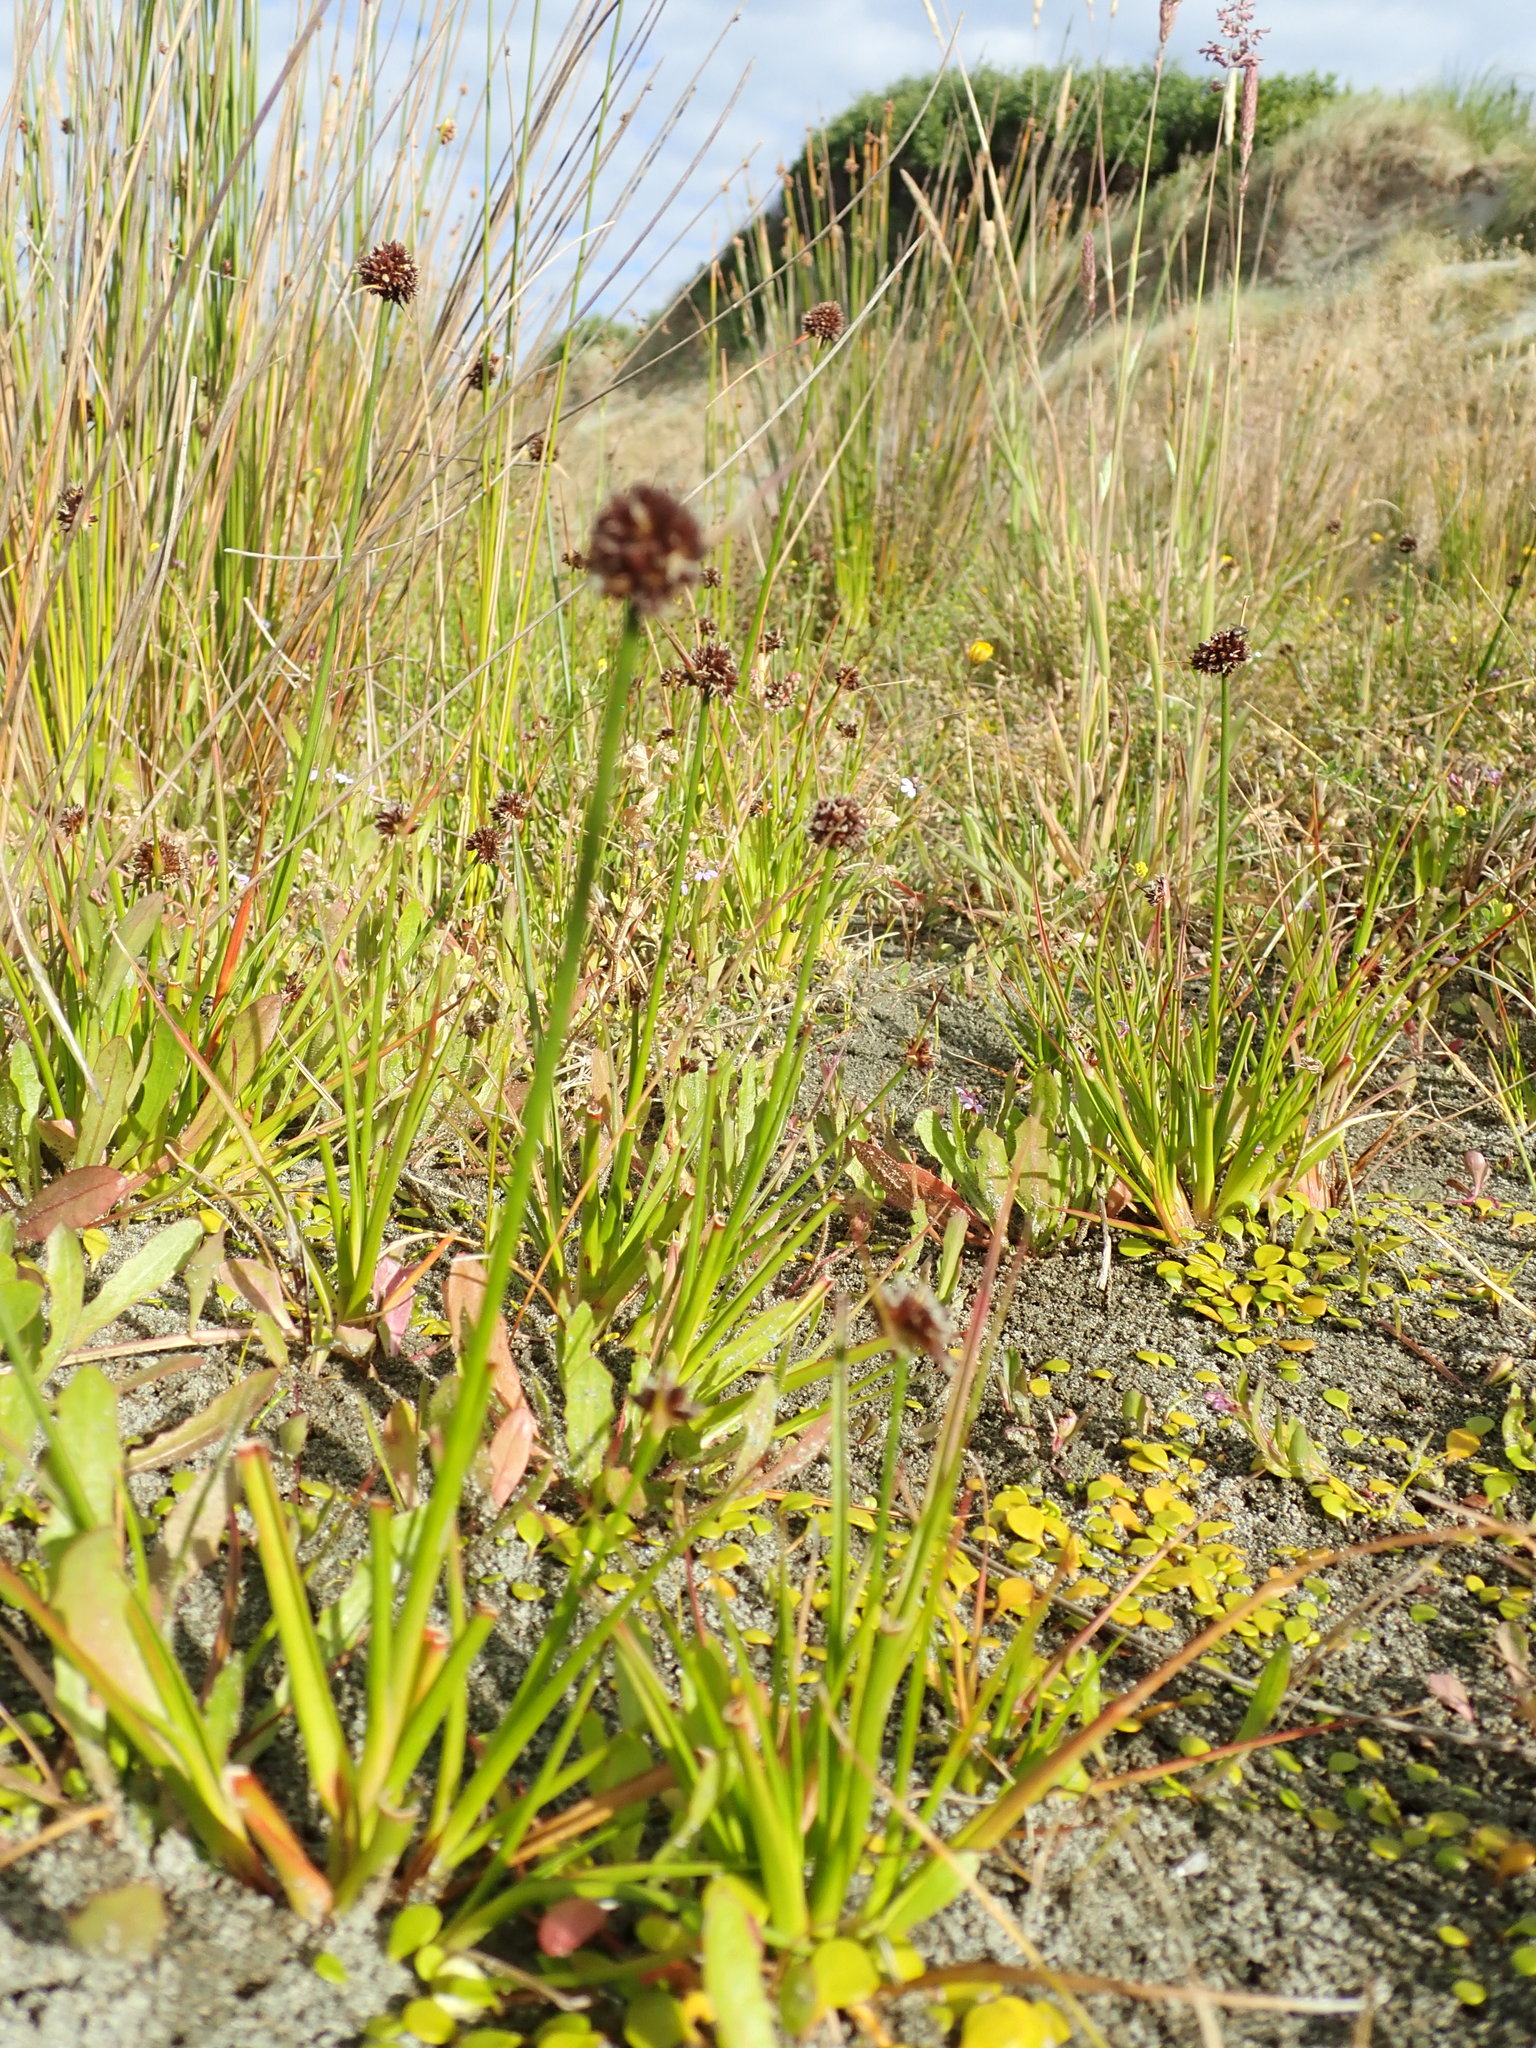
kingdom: Plantae
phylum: Tracheophyta
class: Liliopsida
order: Poales
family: Juncaceae
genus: Juncus
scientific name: Juncus caespiticius
